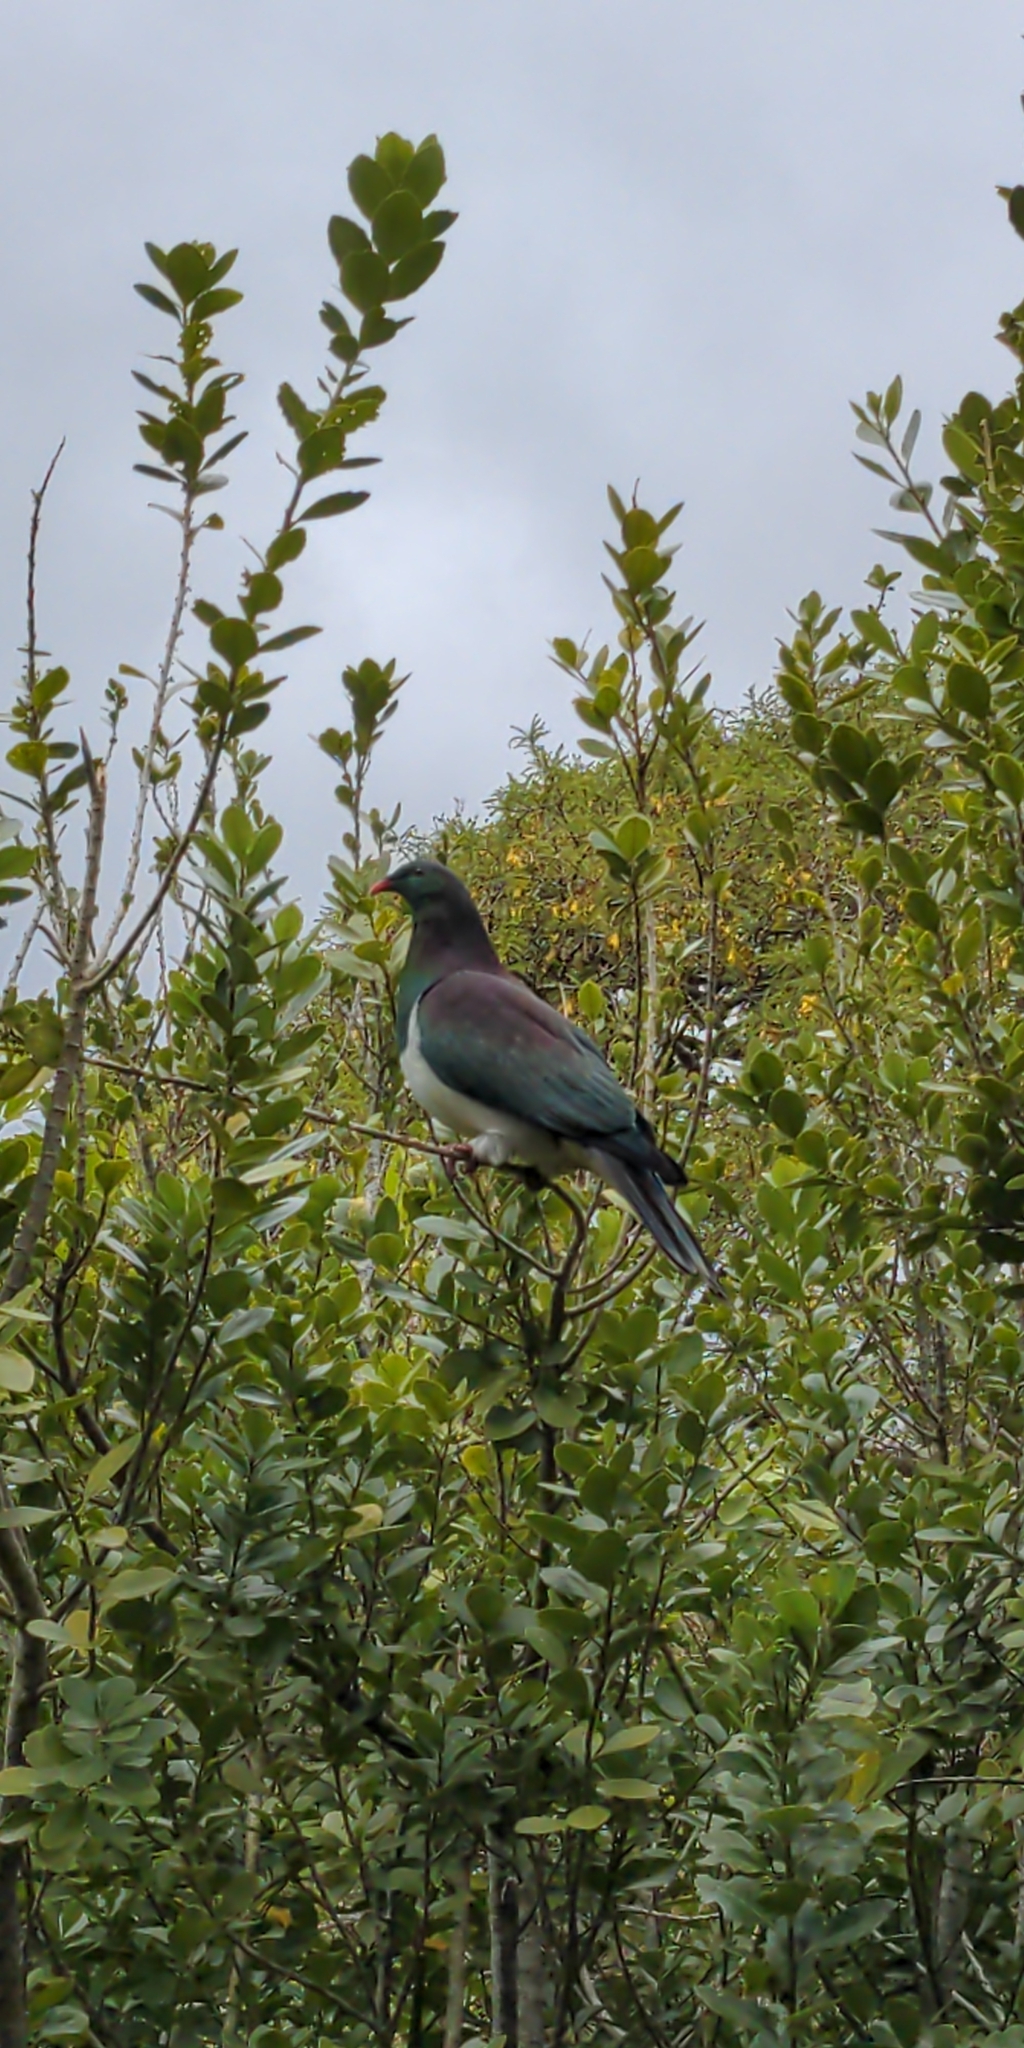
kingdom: Animalia
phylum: Chordata
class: Aves
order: Columbiformes
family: Columbidae
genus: Hemiphaga
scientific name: Hemiphaga novaeseelandiae
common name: New zealand pigeon
